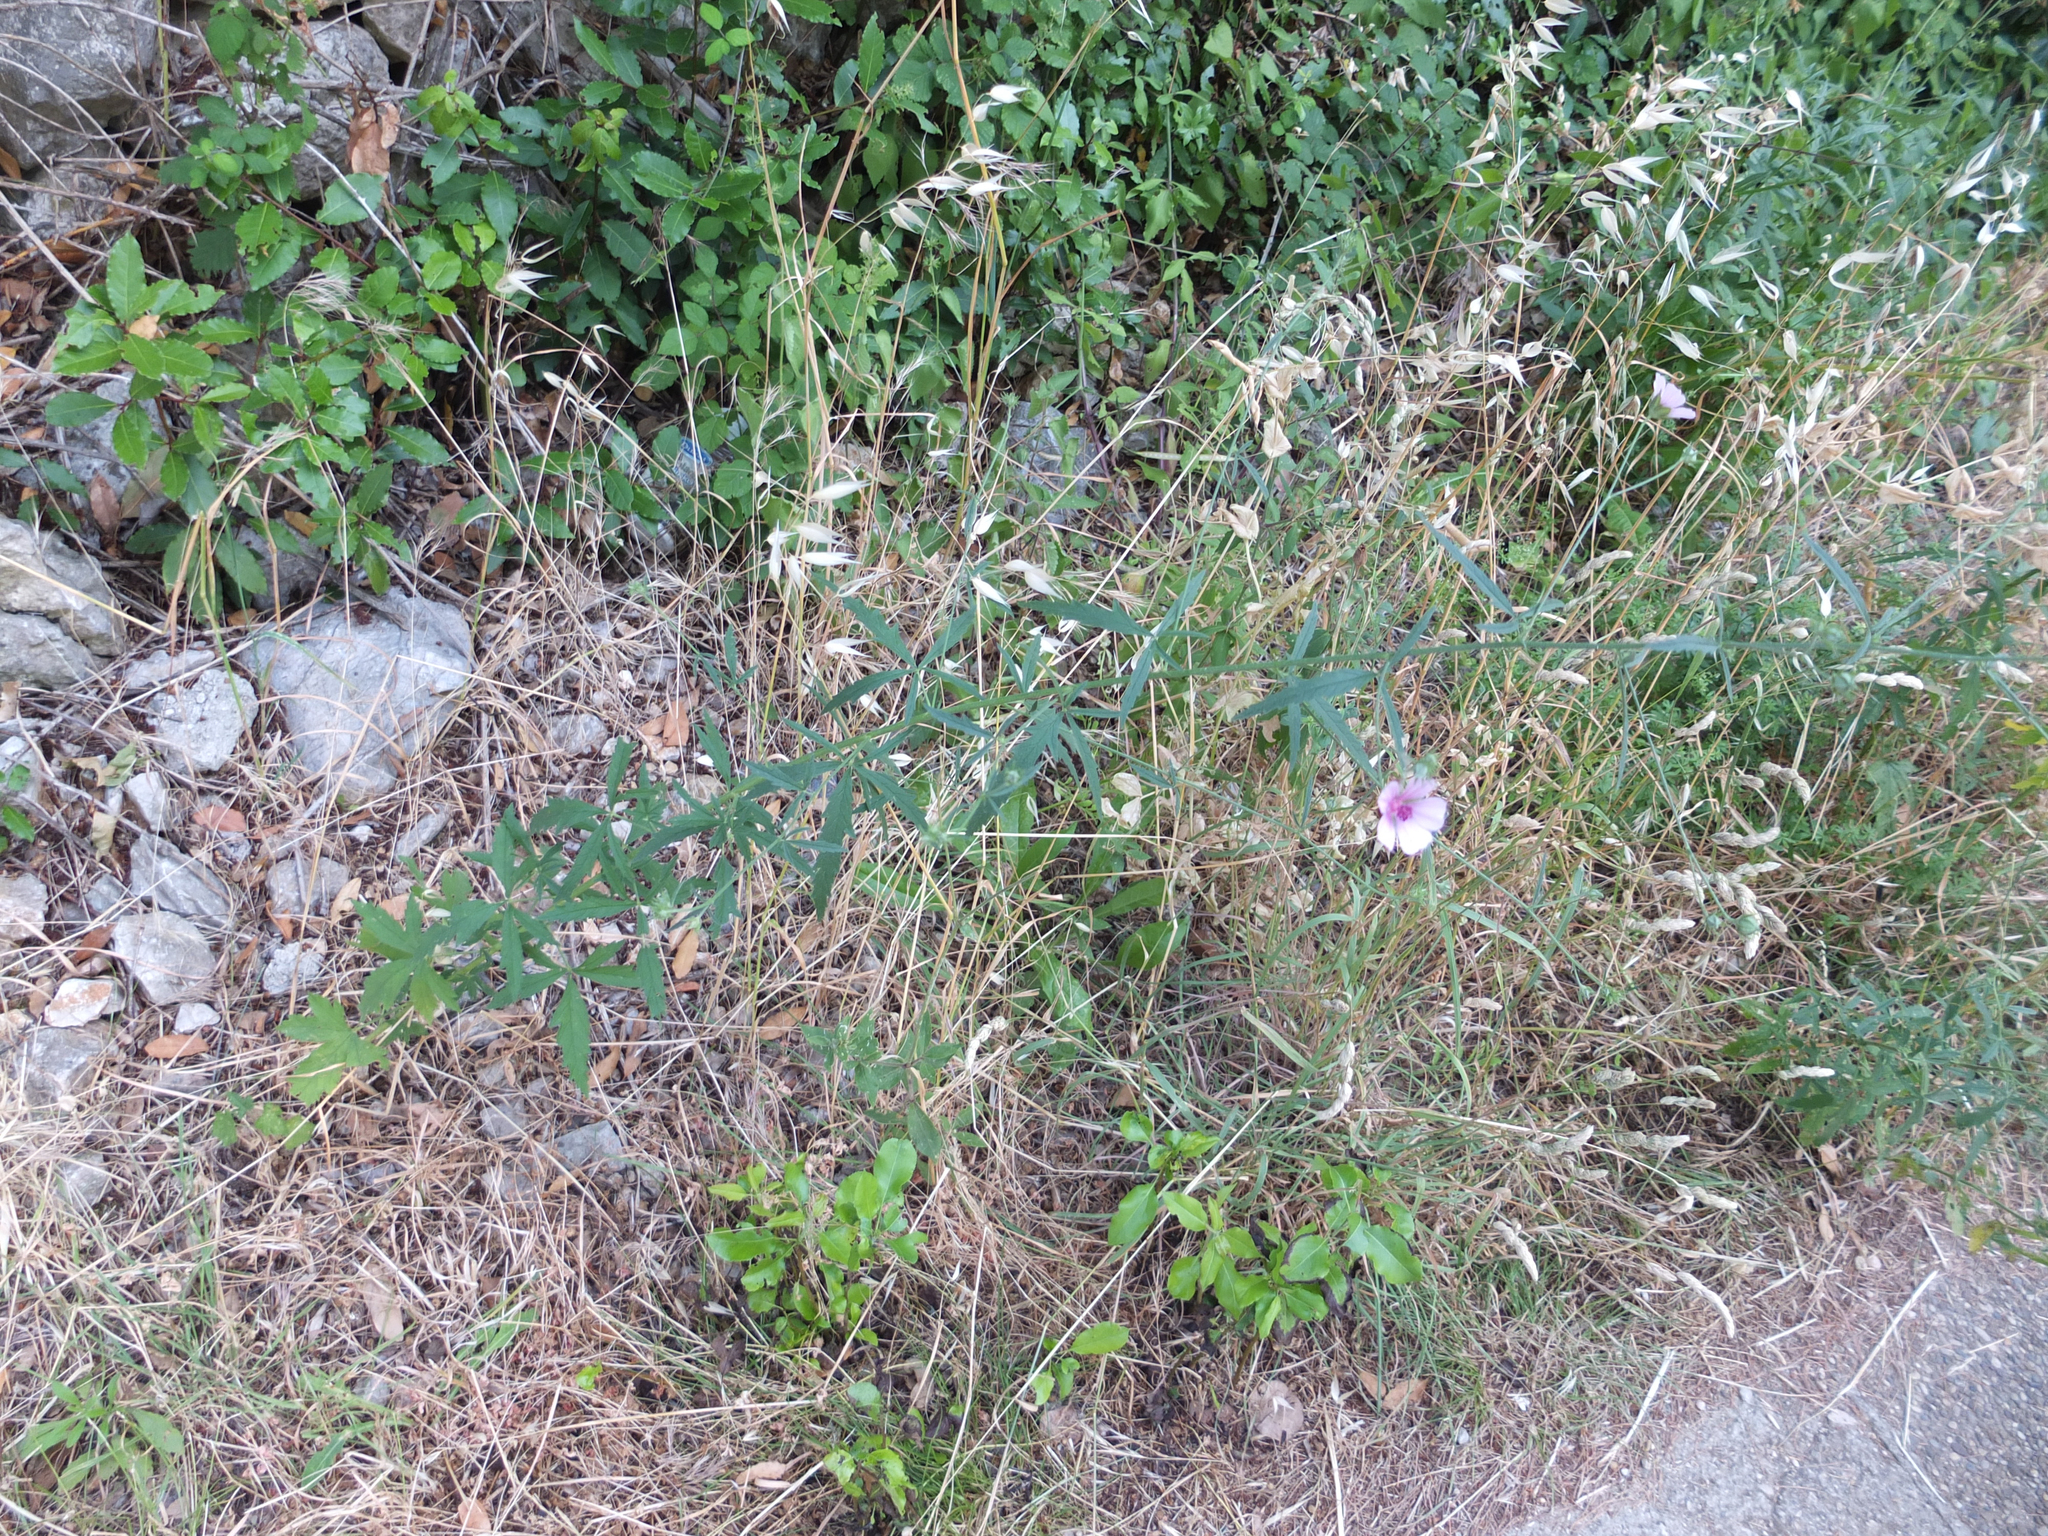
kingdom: Plantae
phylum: Tracheophyta
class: Magnoliopsida
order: Malvales
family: Malvaceae
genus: Althaea
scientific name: Althaea cannabina
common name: Palm-leaf marshmallow
